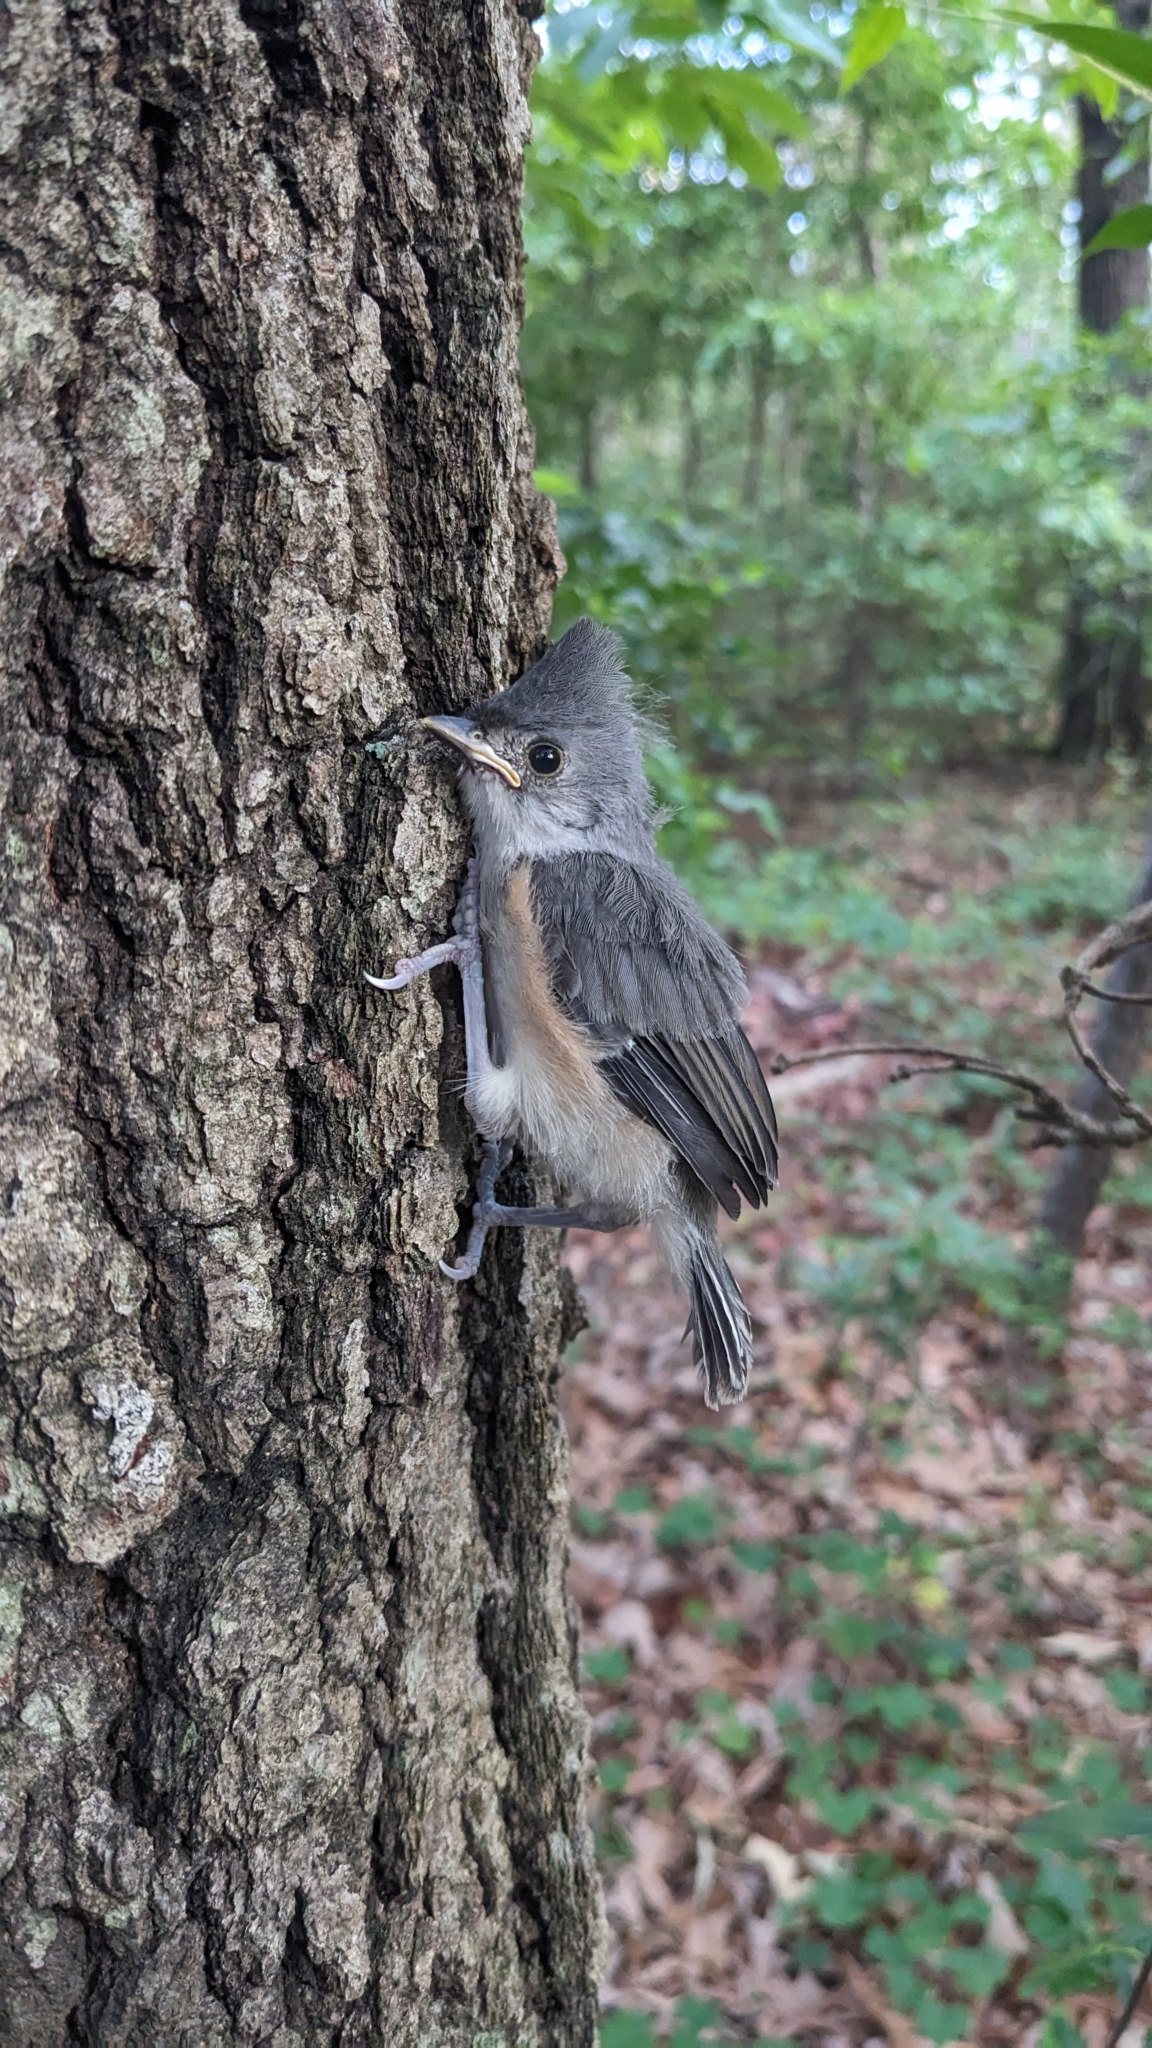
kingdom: Animalia
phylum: Chordata
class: Aves
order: Passeriformes
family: Paridae
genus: Baeolophus
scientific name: Baeolophus bicolor
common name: Tufted titmouse
